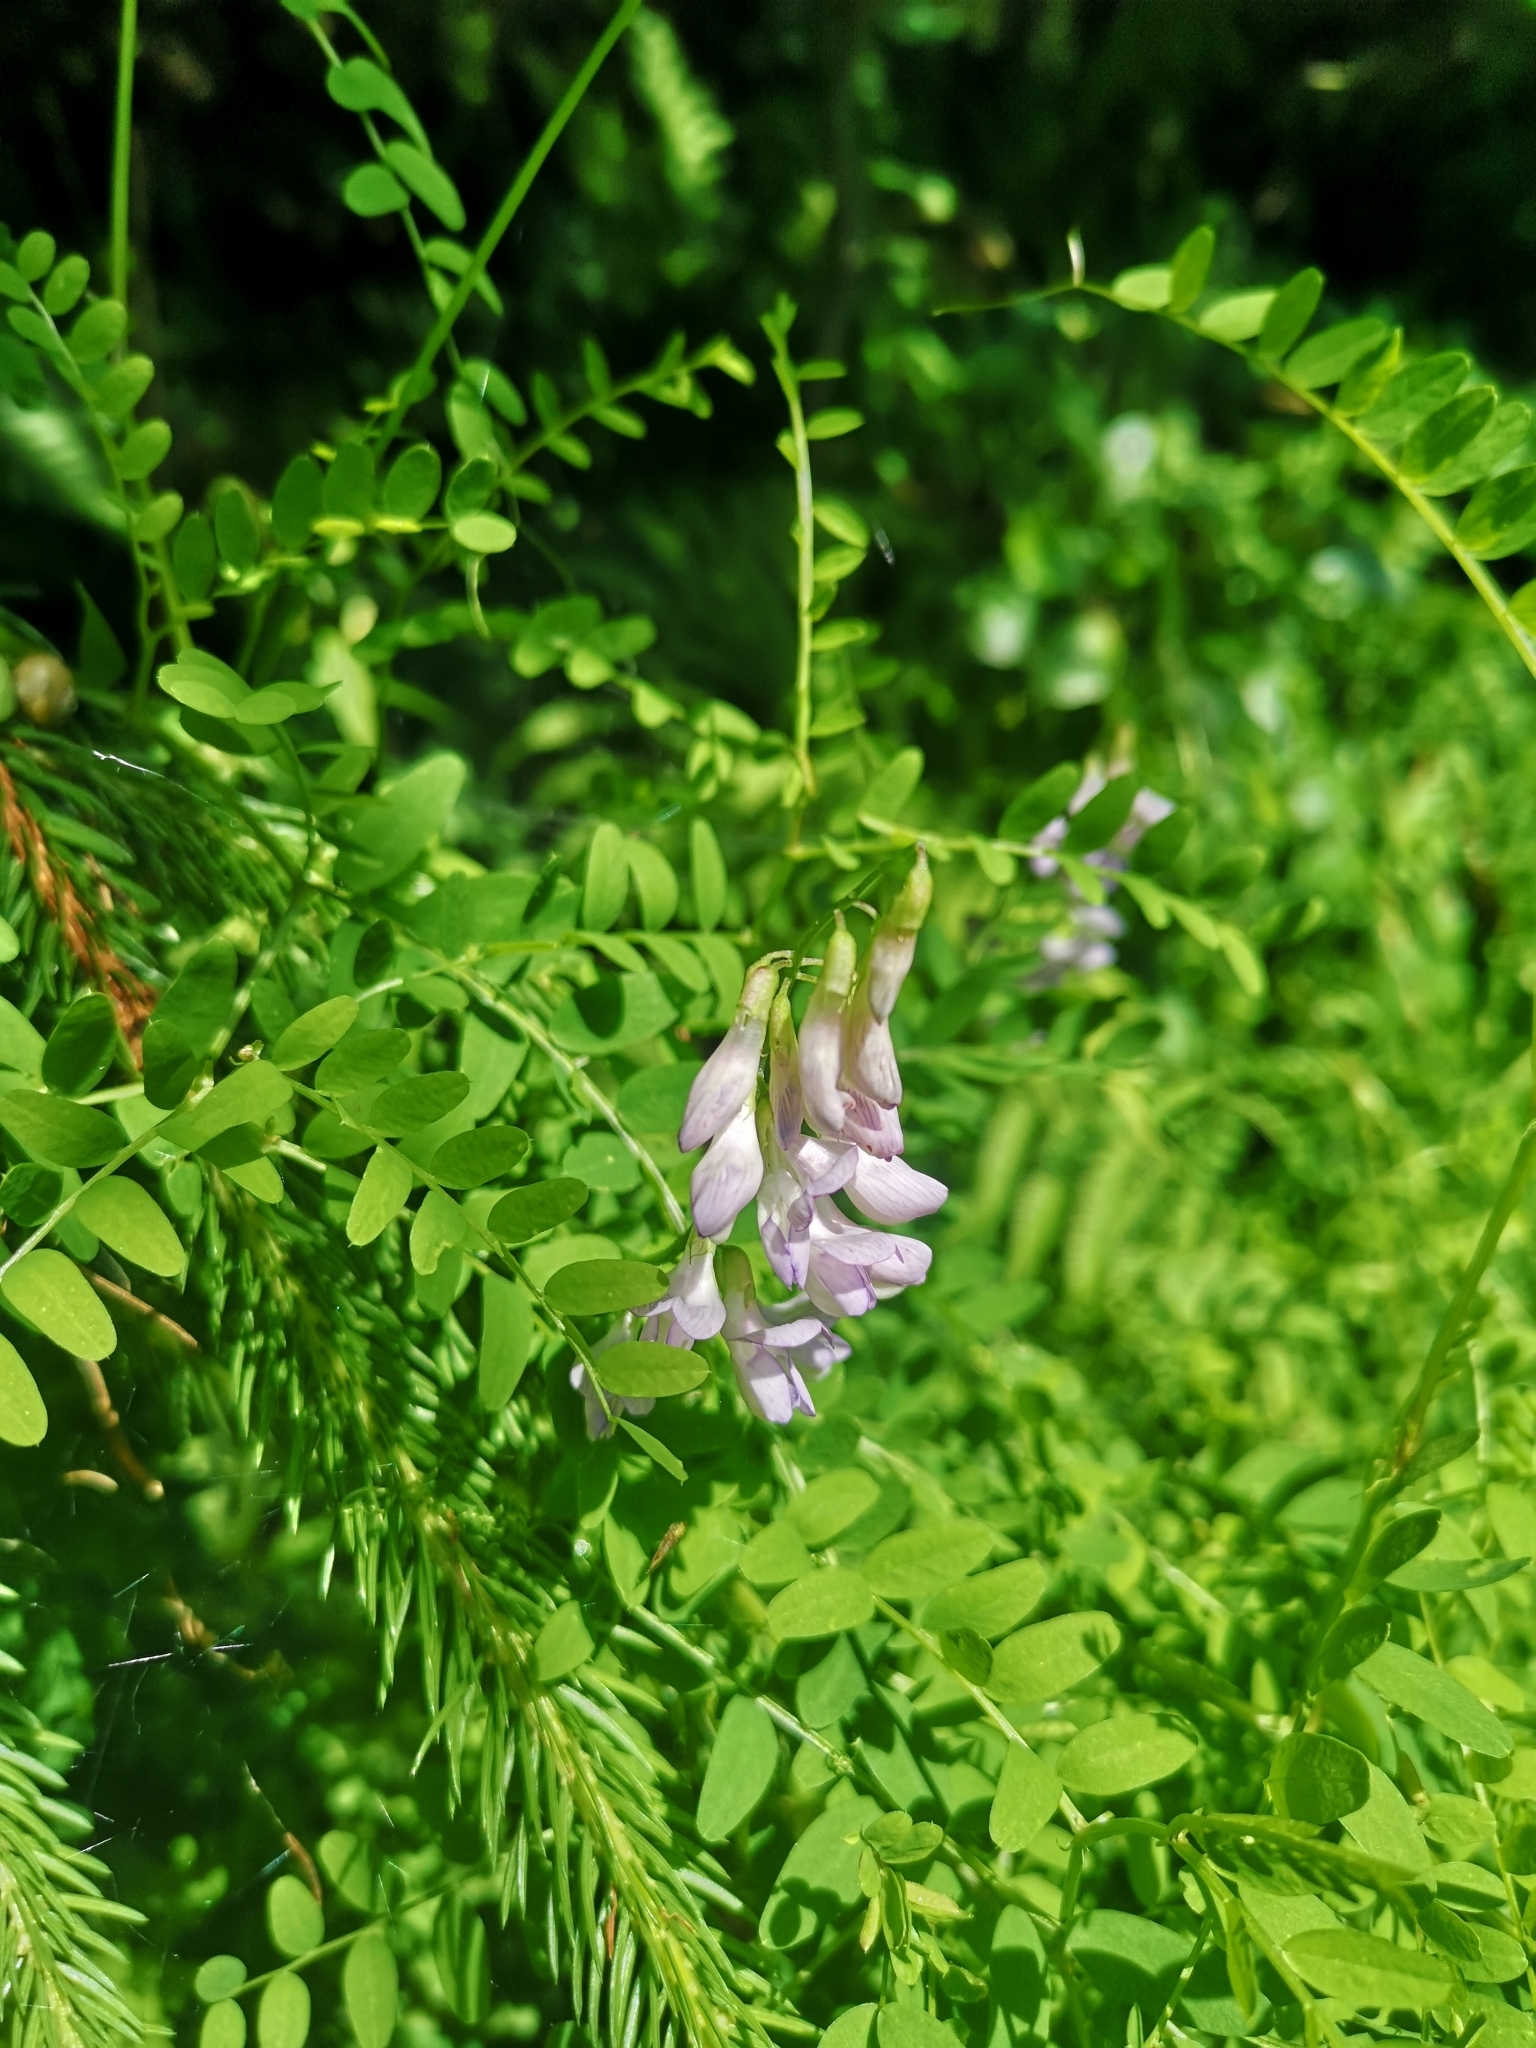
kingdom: Plantae
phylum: Tracheophyta
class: Magnoliopsida
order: Fabales
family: Fabaceae
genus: Vicia
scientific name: Vicia sylvatica
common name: Wood vetch
